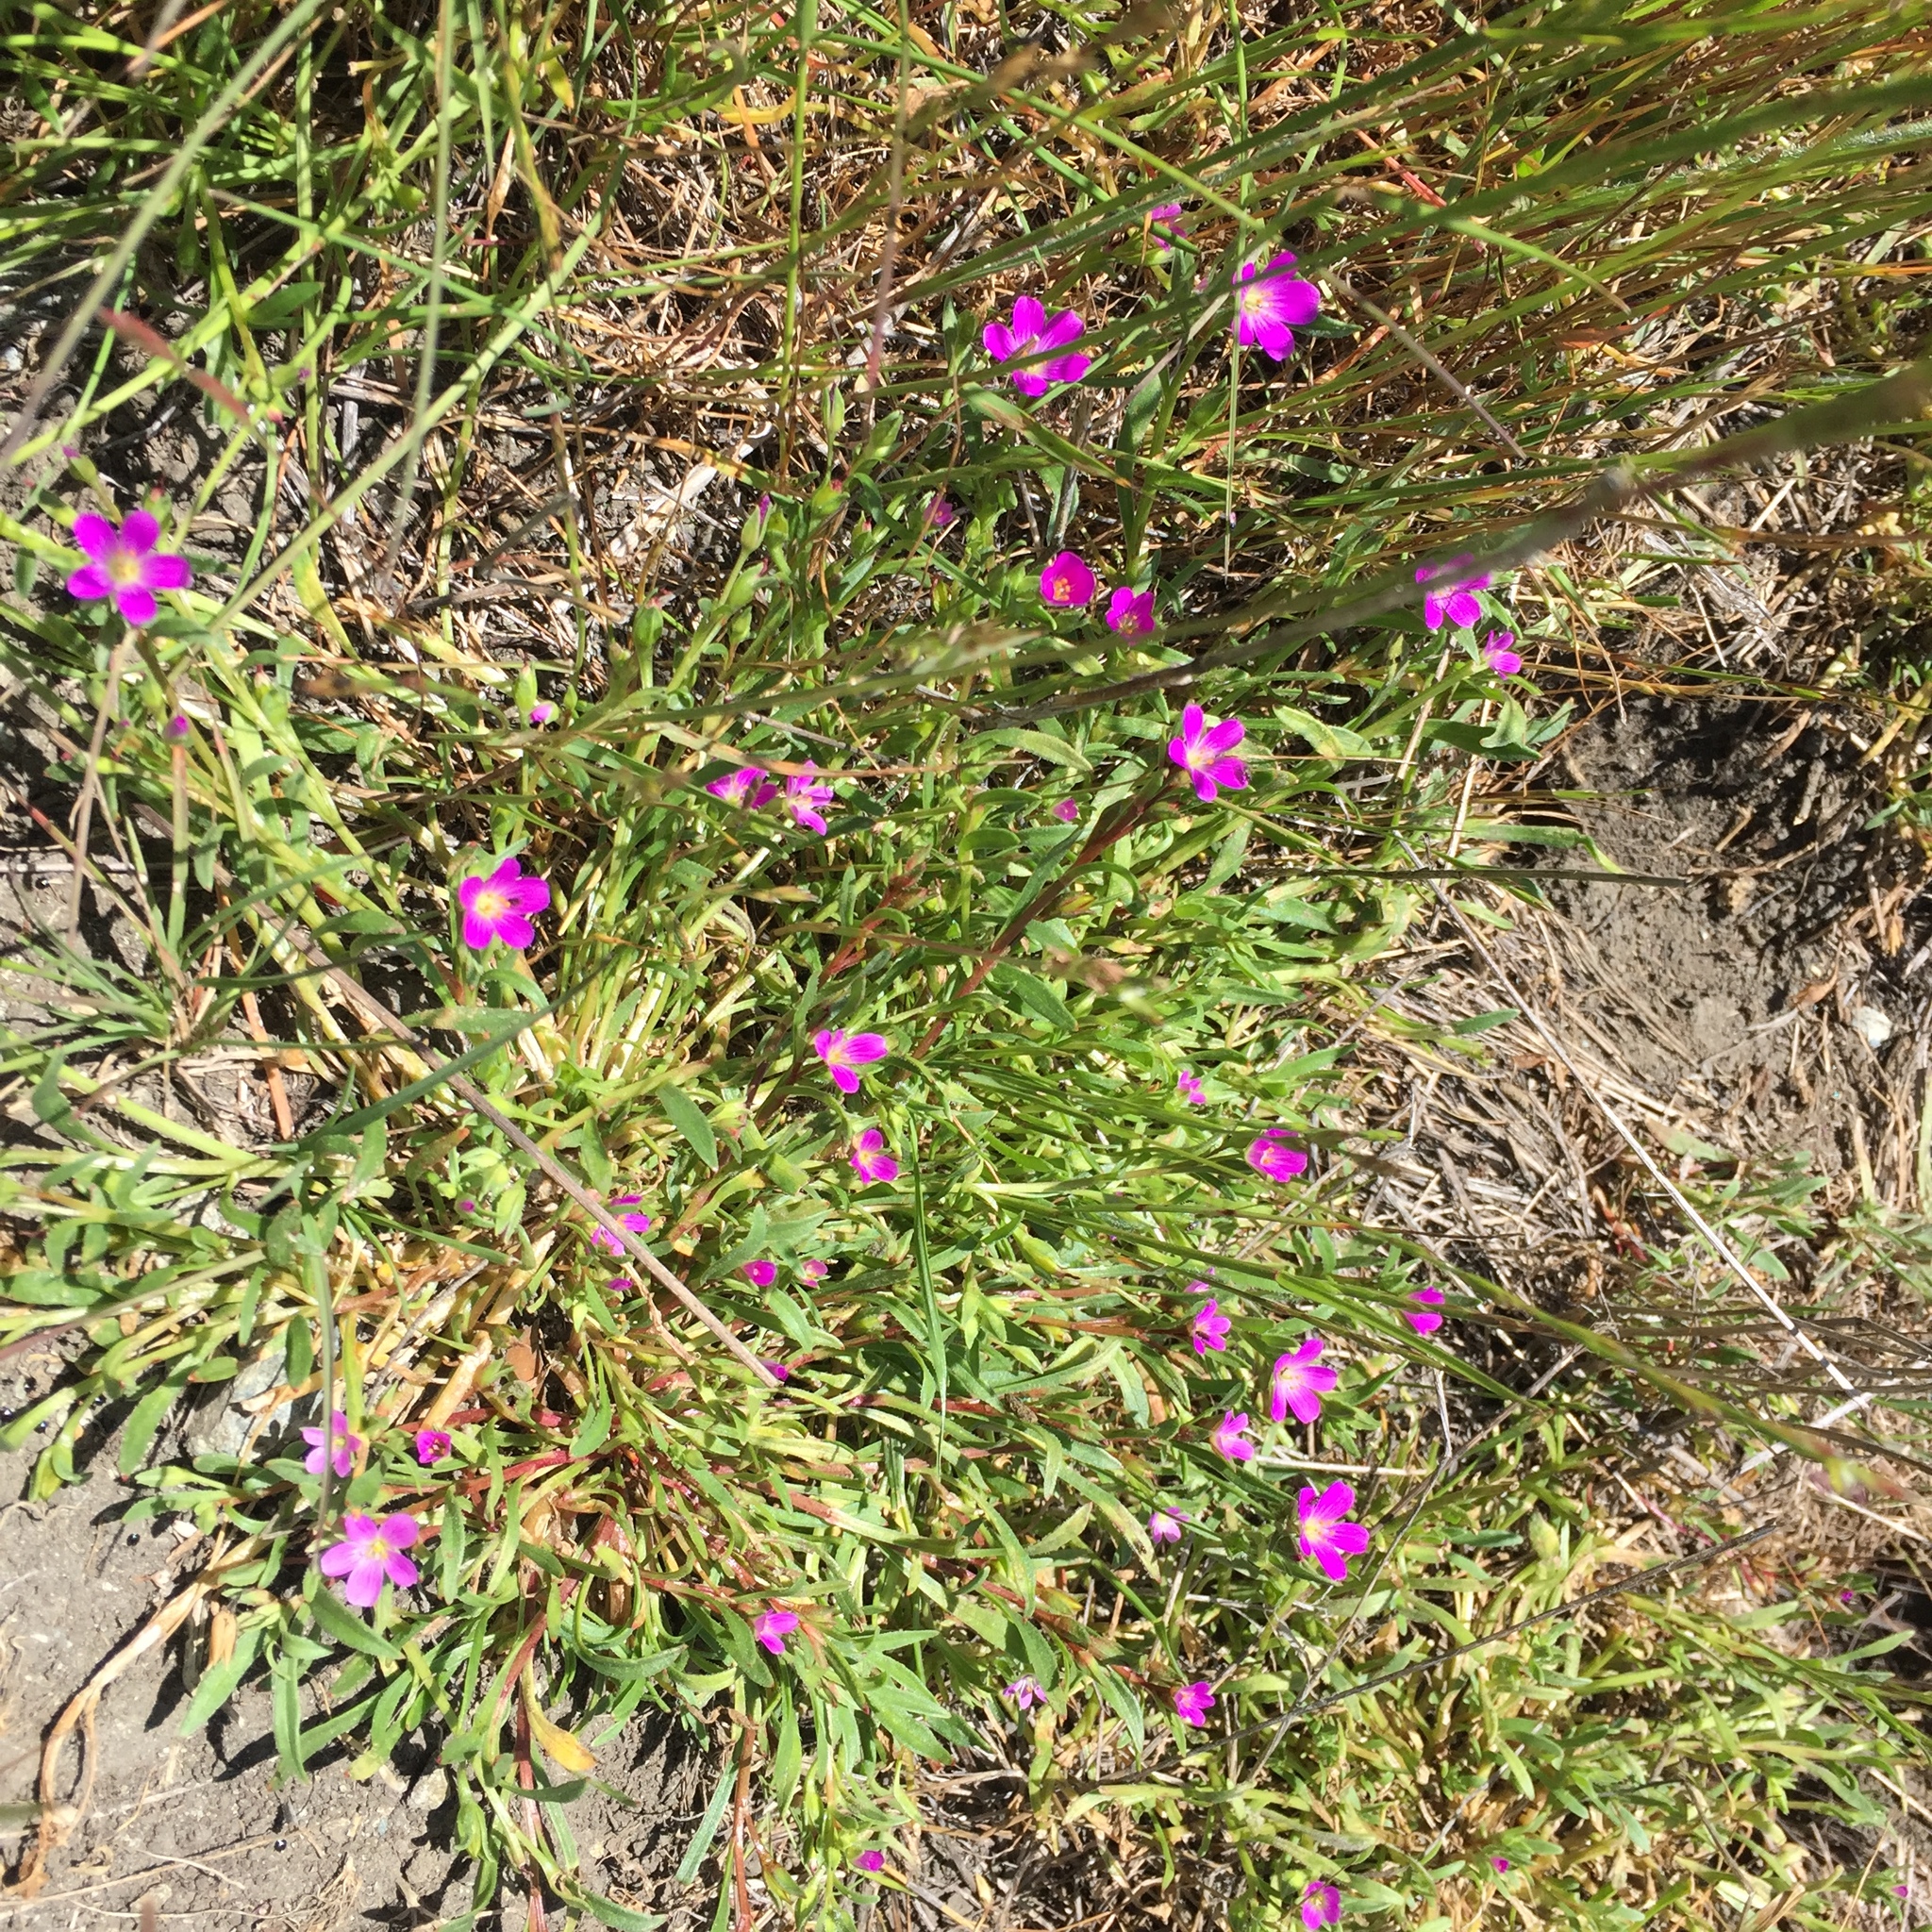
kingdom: Plantae
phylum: Tracheophyta
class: Magnoliopsida
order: Caryophyllales
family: Montiaceae
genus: Calandrinia
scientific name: Calandrinia menziesii
